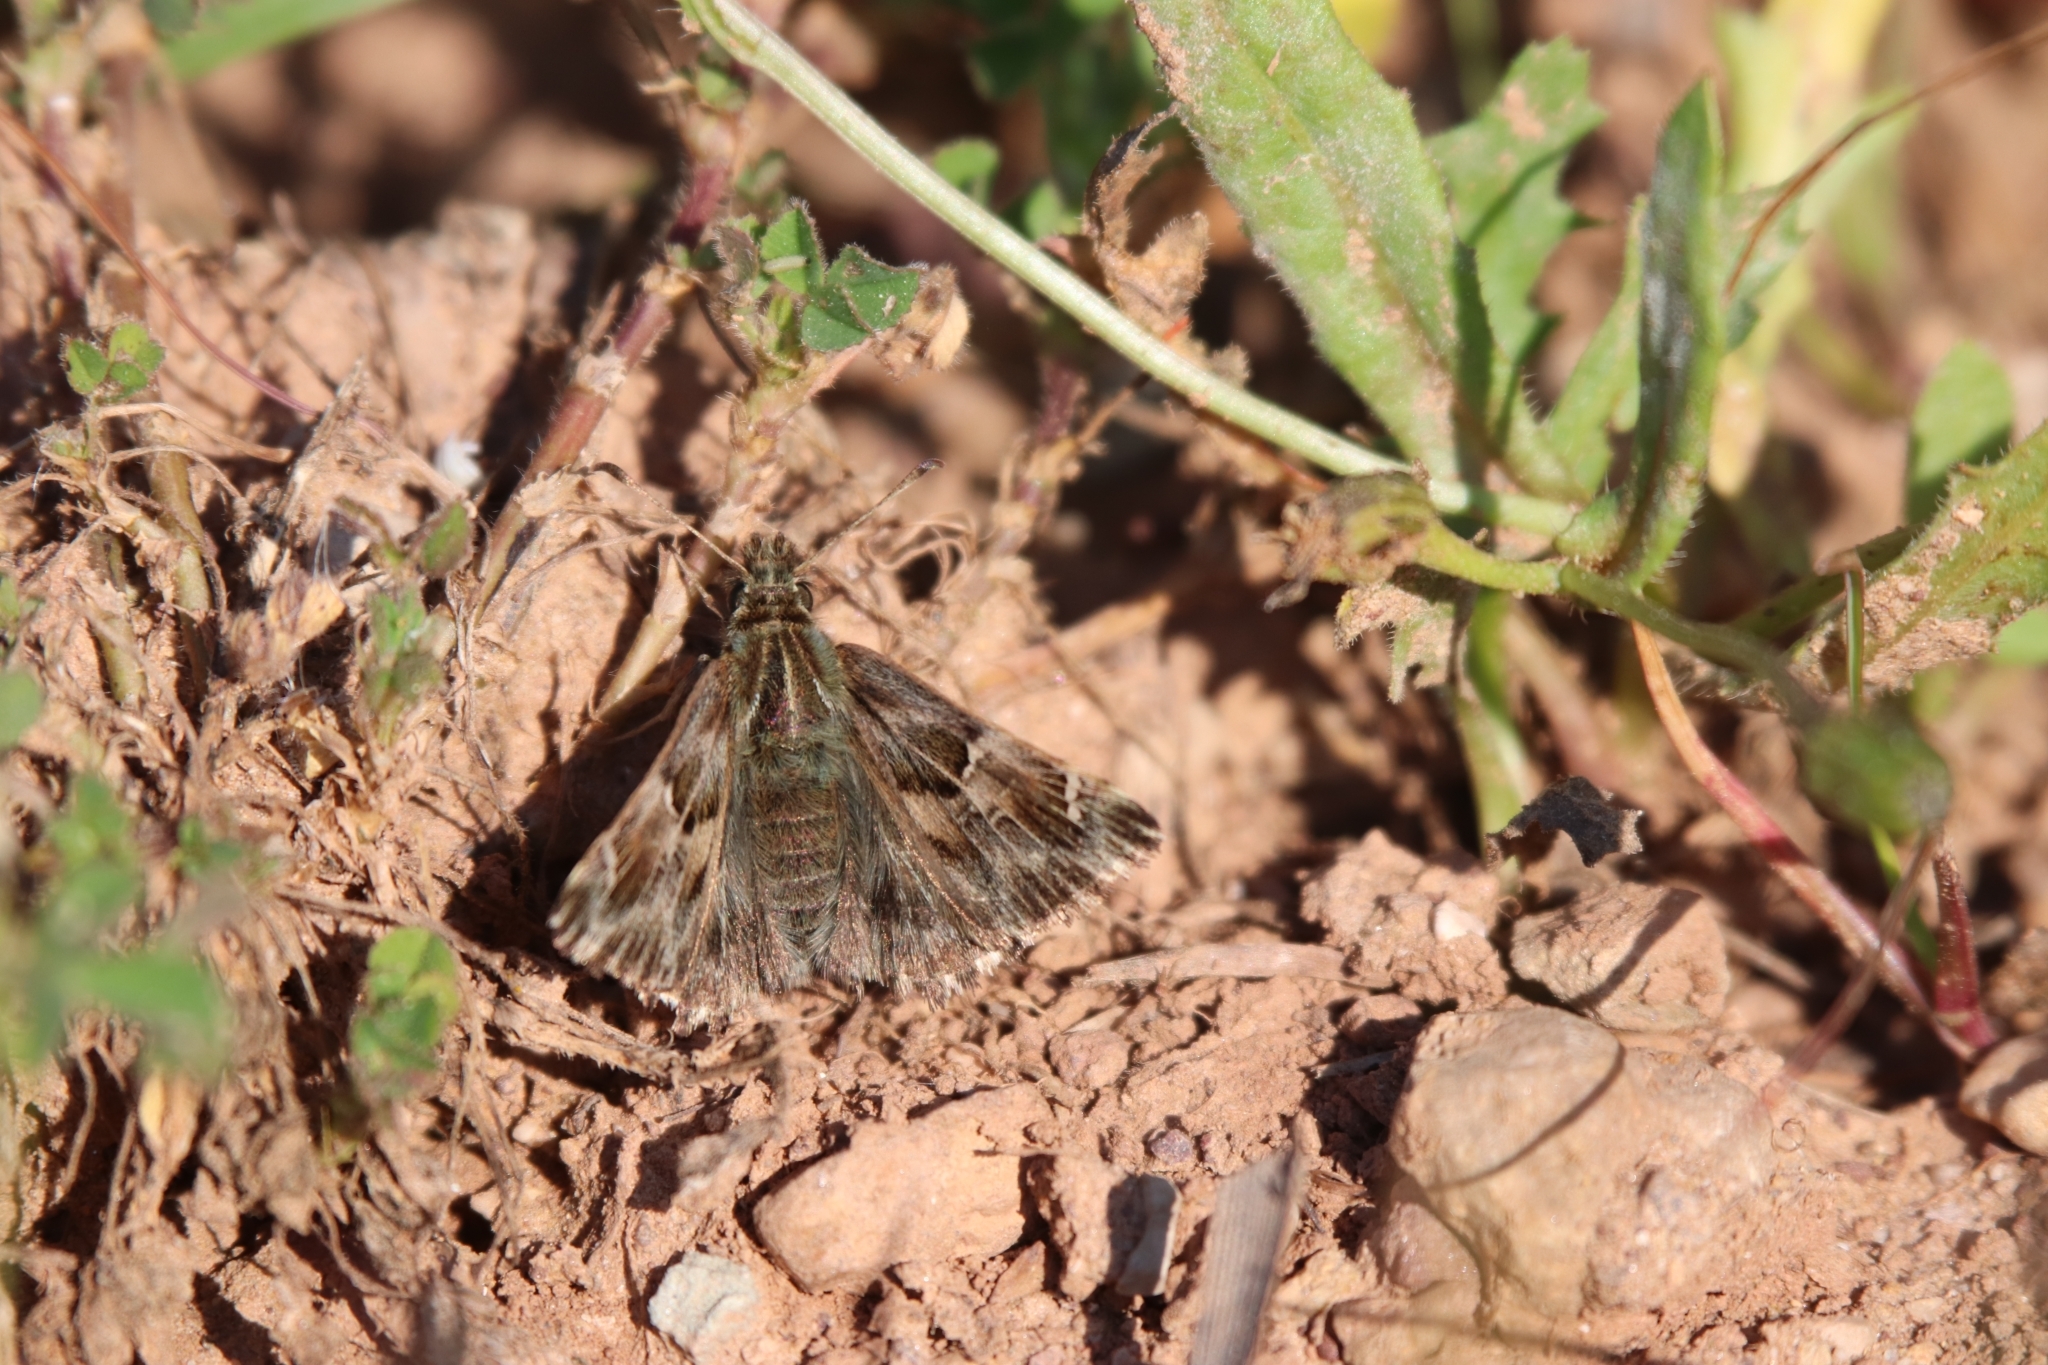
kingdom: Animalia
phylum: Arthropoda
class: Insecta
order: Lepidoptera
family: Hesperiidae
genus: Carcharodus
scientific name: Carcharodus alceae
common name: Mallow skipper
